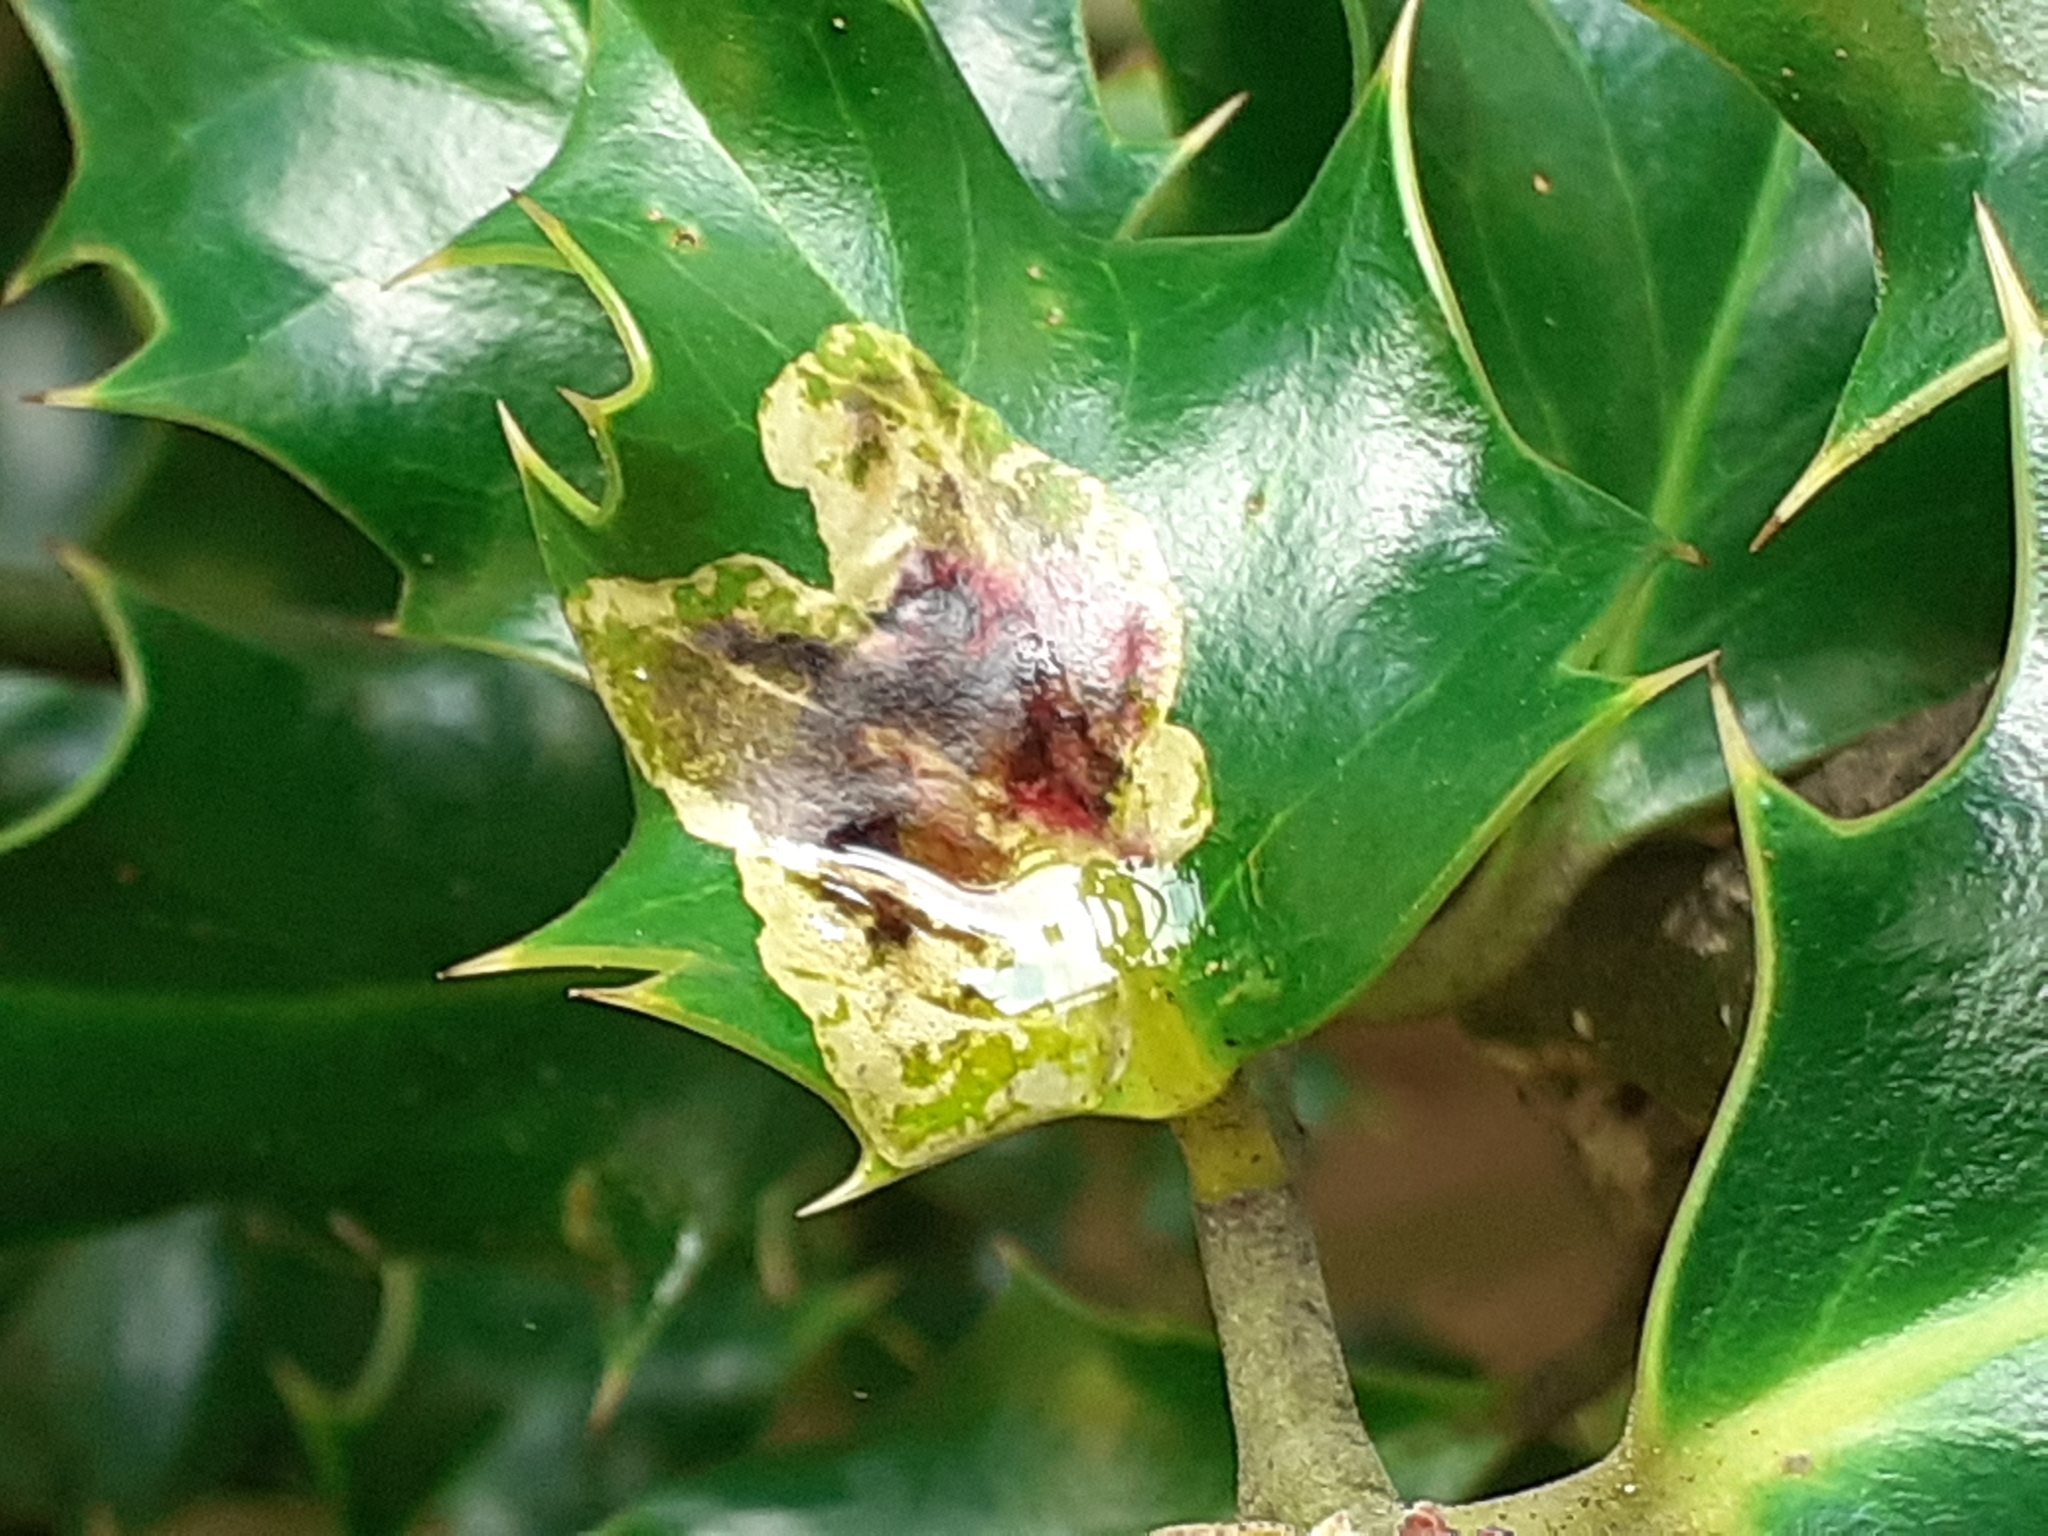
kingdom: Animalia
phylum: Arthropoda
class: Insecta
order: Diptera
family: Agromyzidae
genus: Phytomyza
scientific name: Phytomyza ilicis
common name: Holly leafminer
